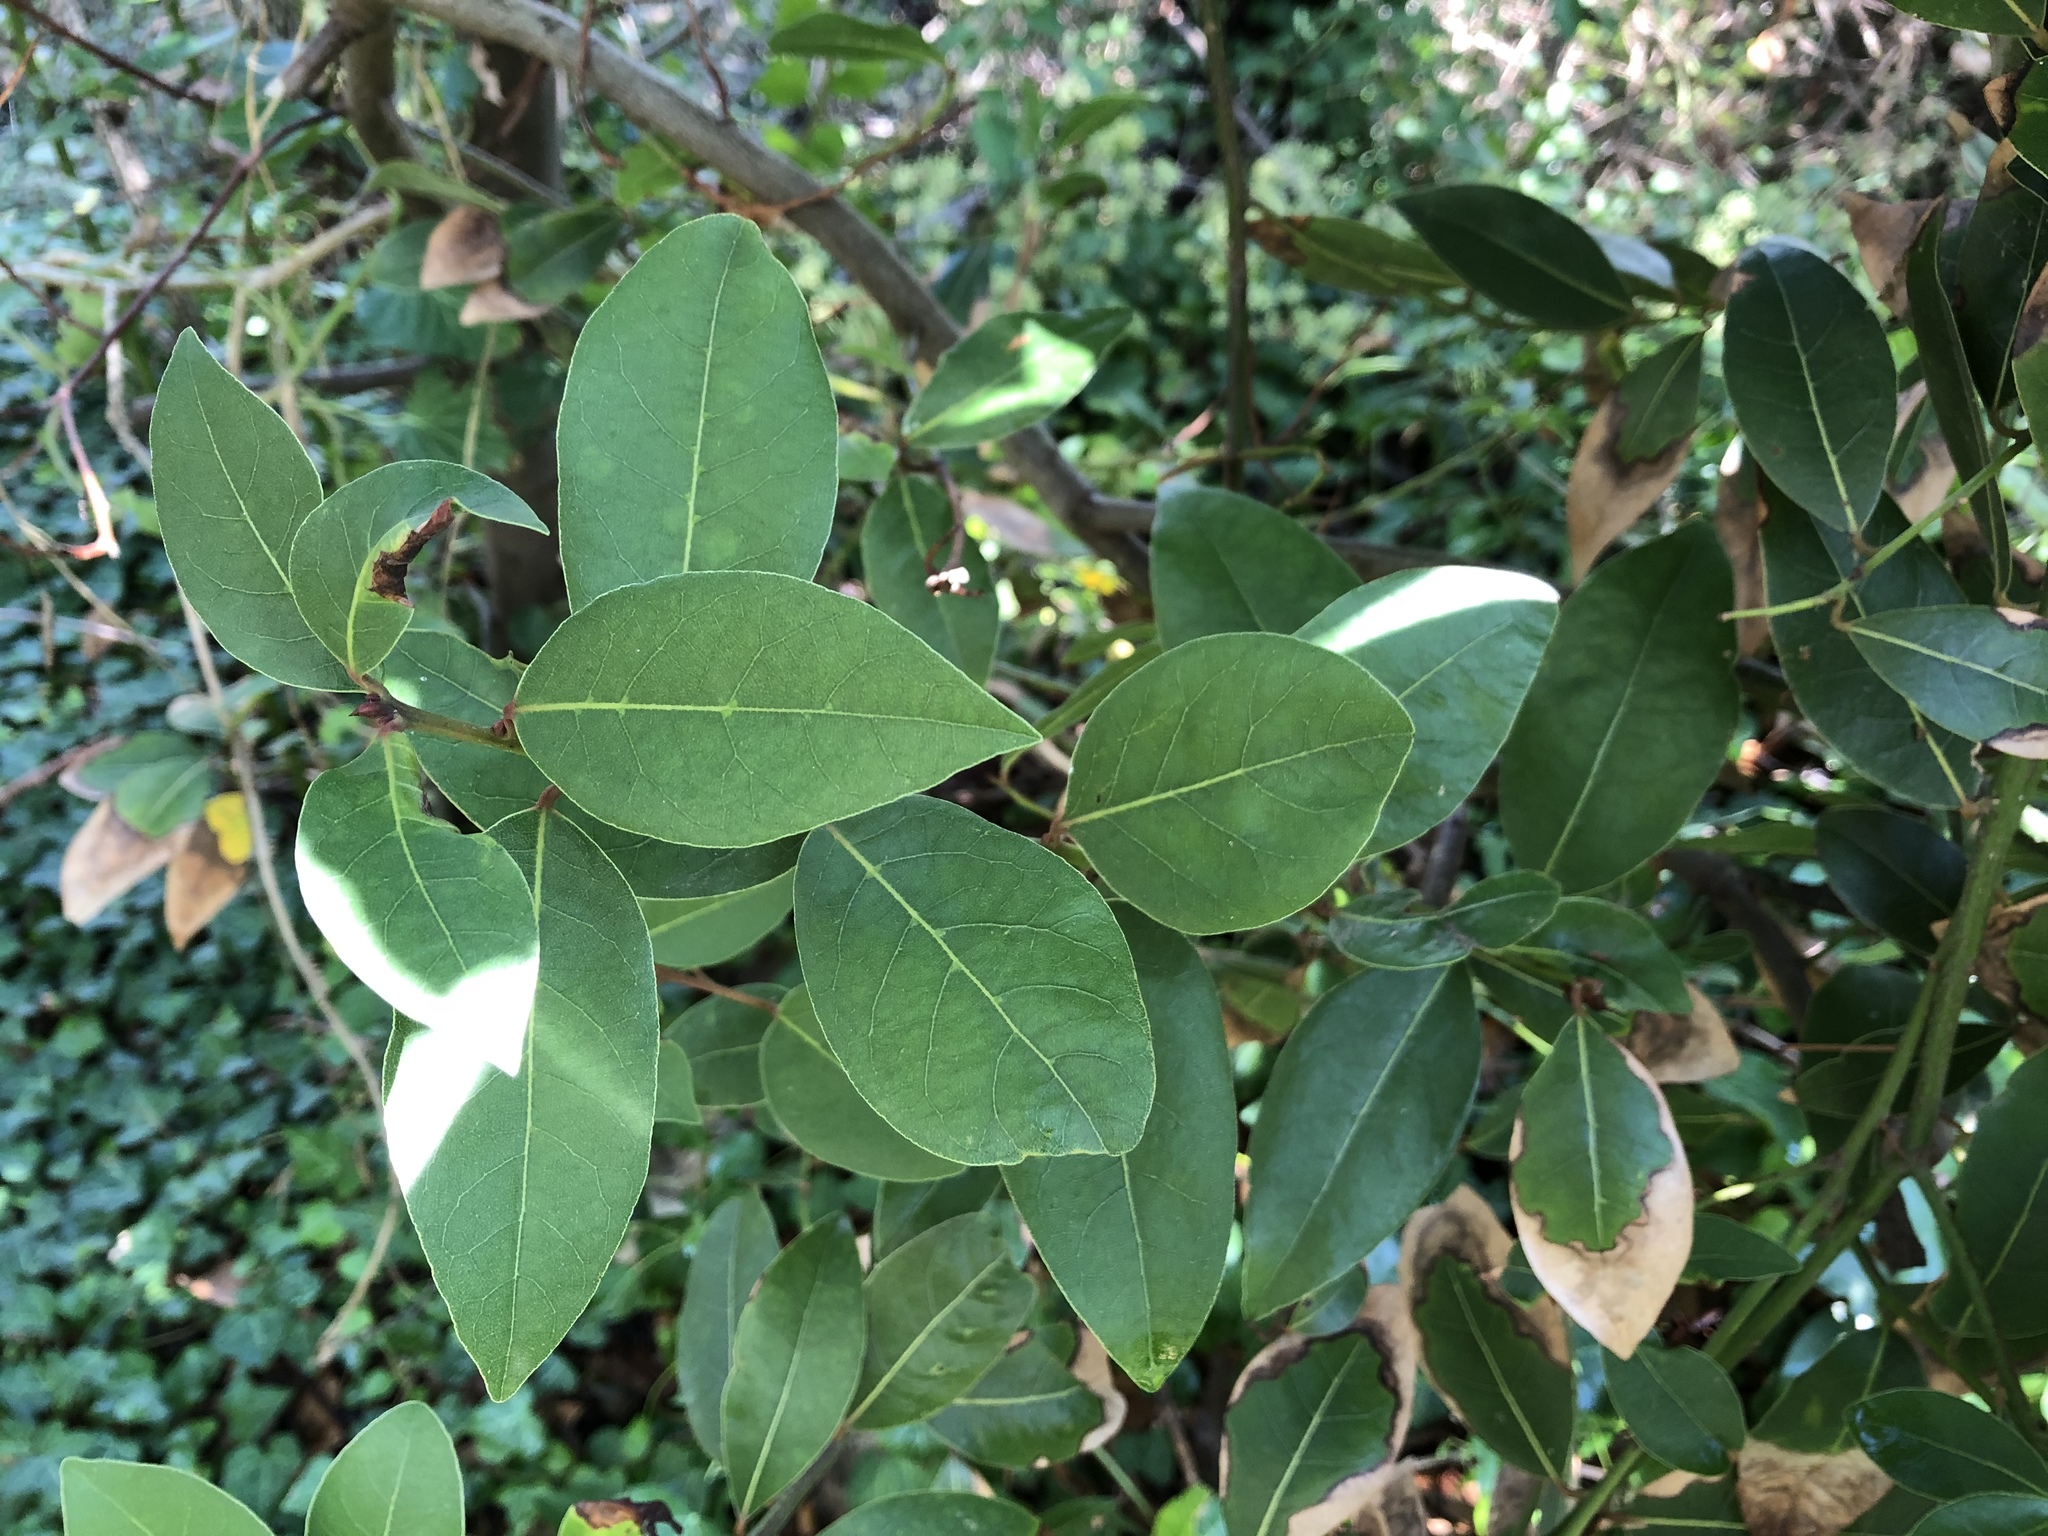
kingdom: Plantae
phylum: Tracheophyta
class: Magnoliopsida
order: Laurales
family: Lauraceae
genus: Laurus
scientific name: Laurus nobilis
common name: Bay
